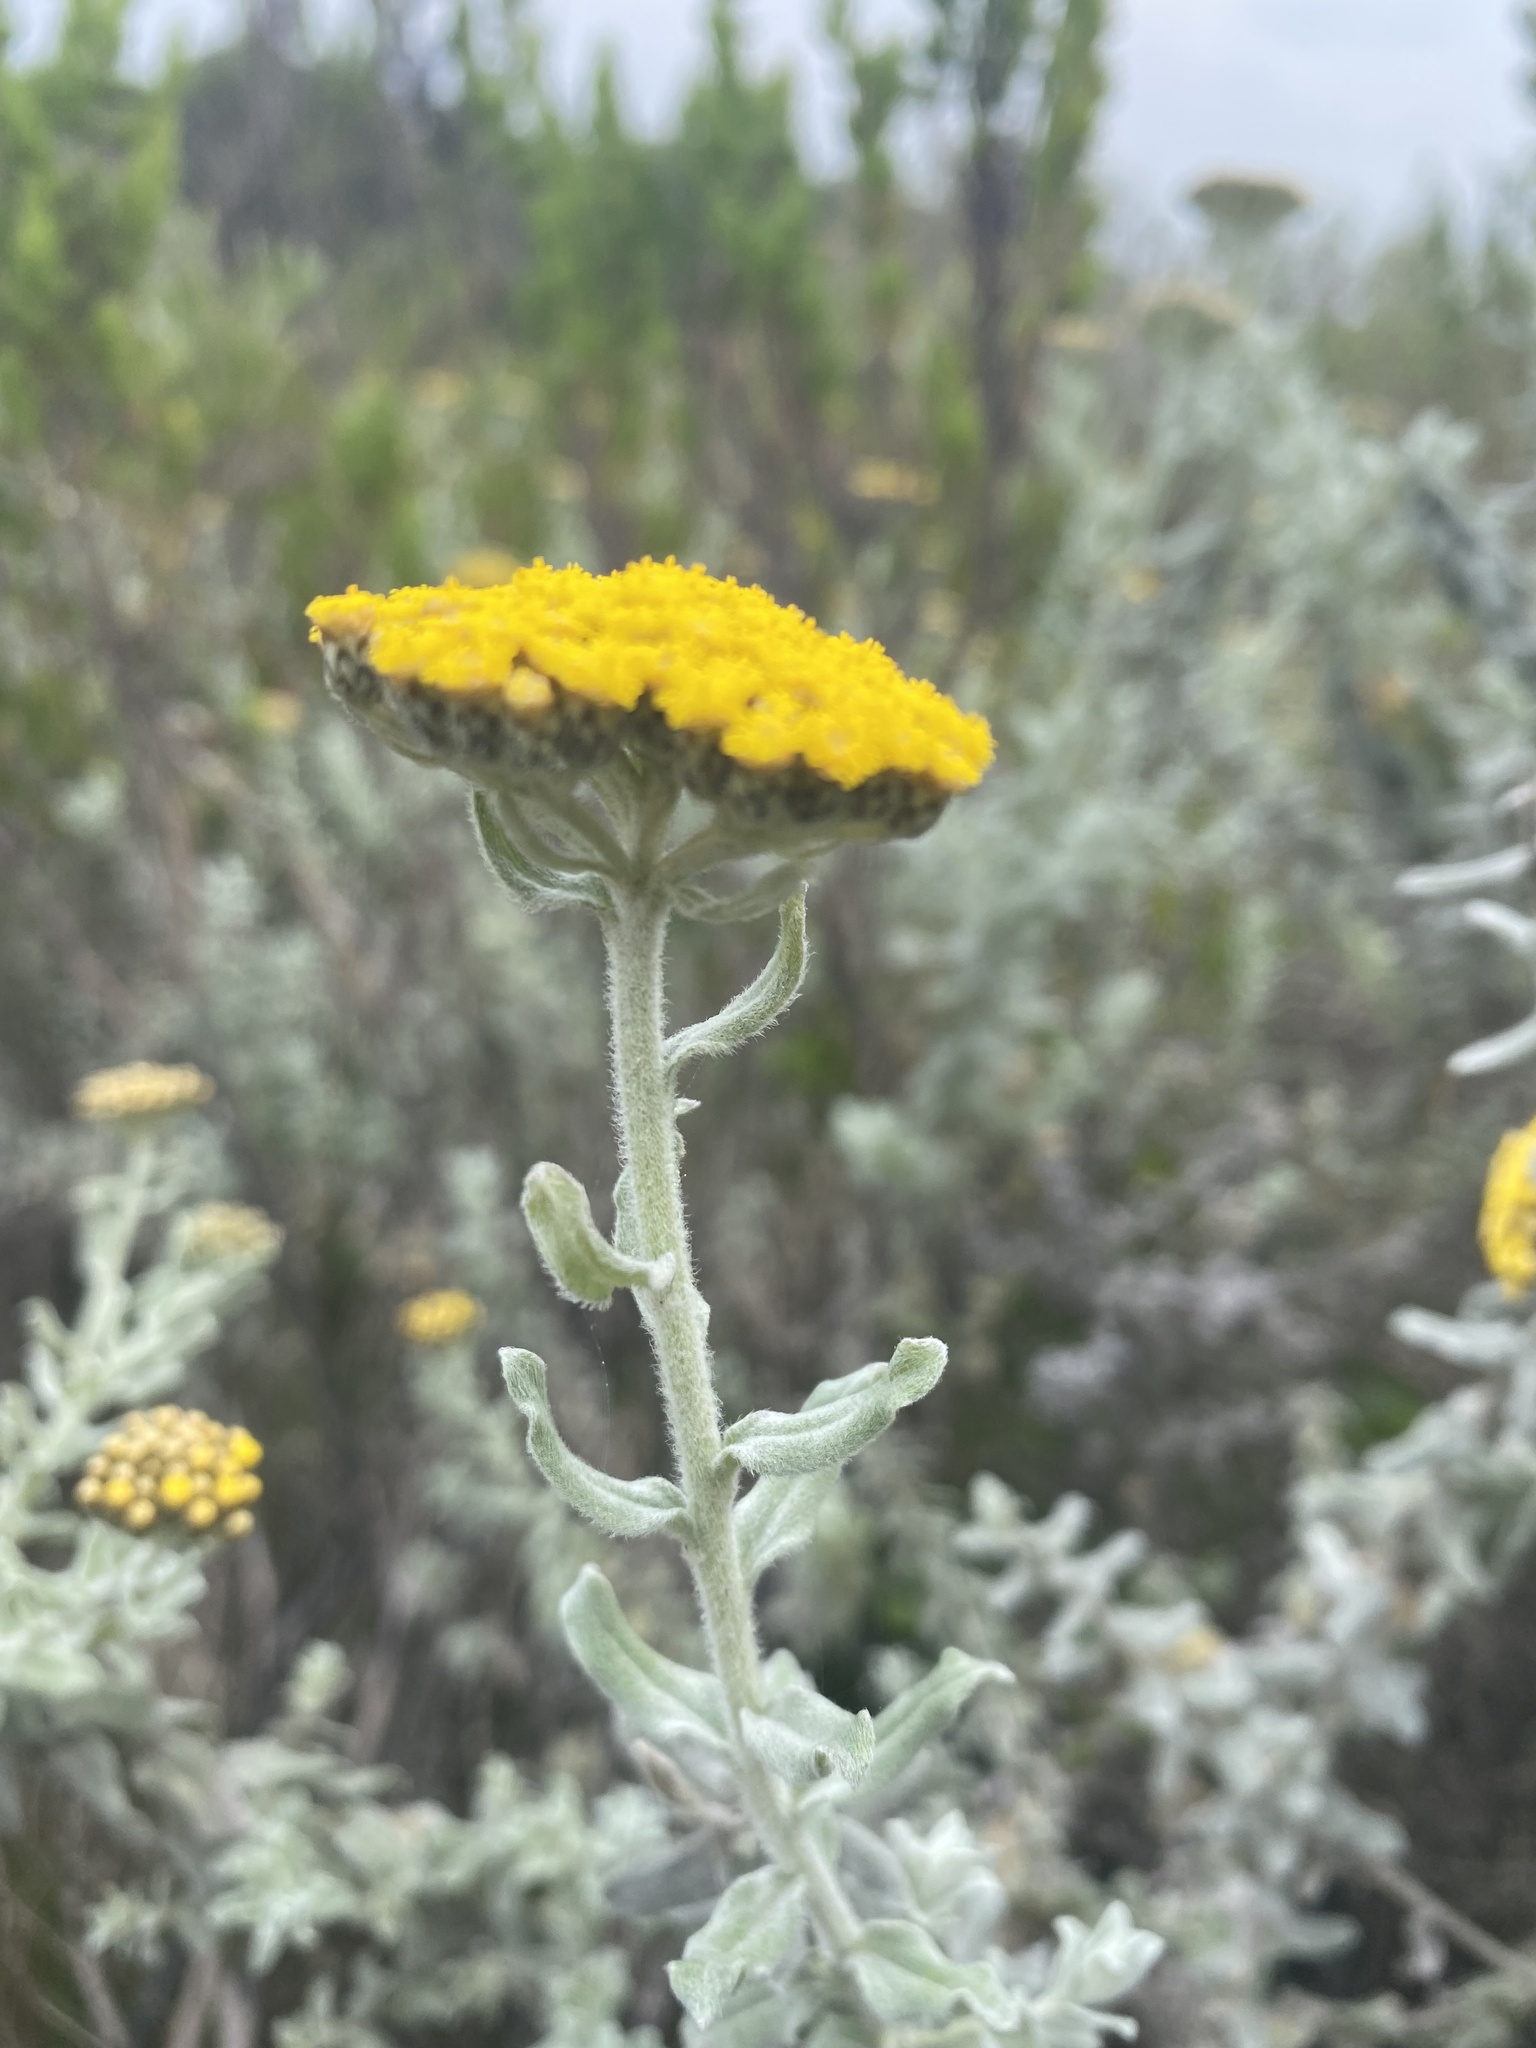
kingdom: Plantae
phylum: Tracheophyta
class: Magnoliopsida
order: Asterales
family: Asteraceae
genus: Helichrysum
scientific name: Helichrysum dasyanthum
